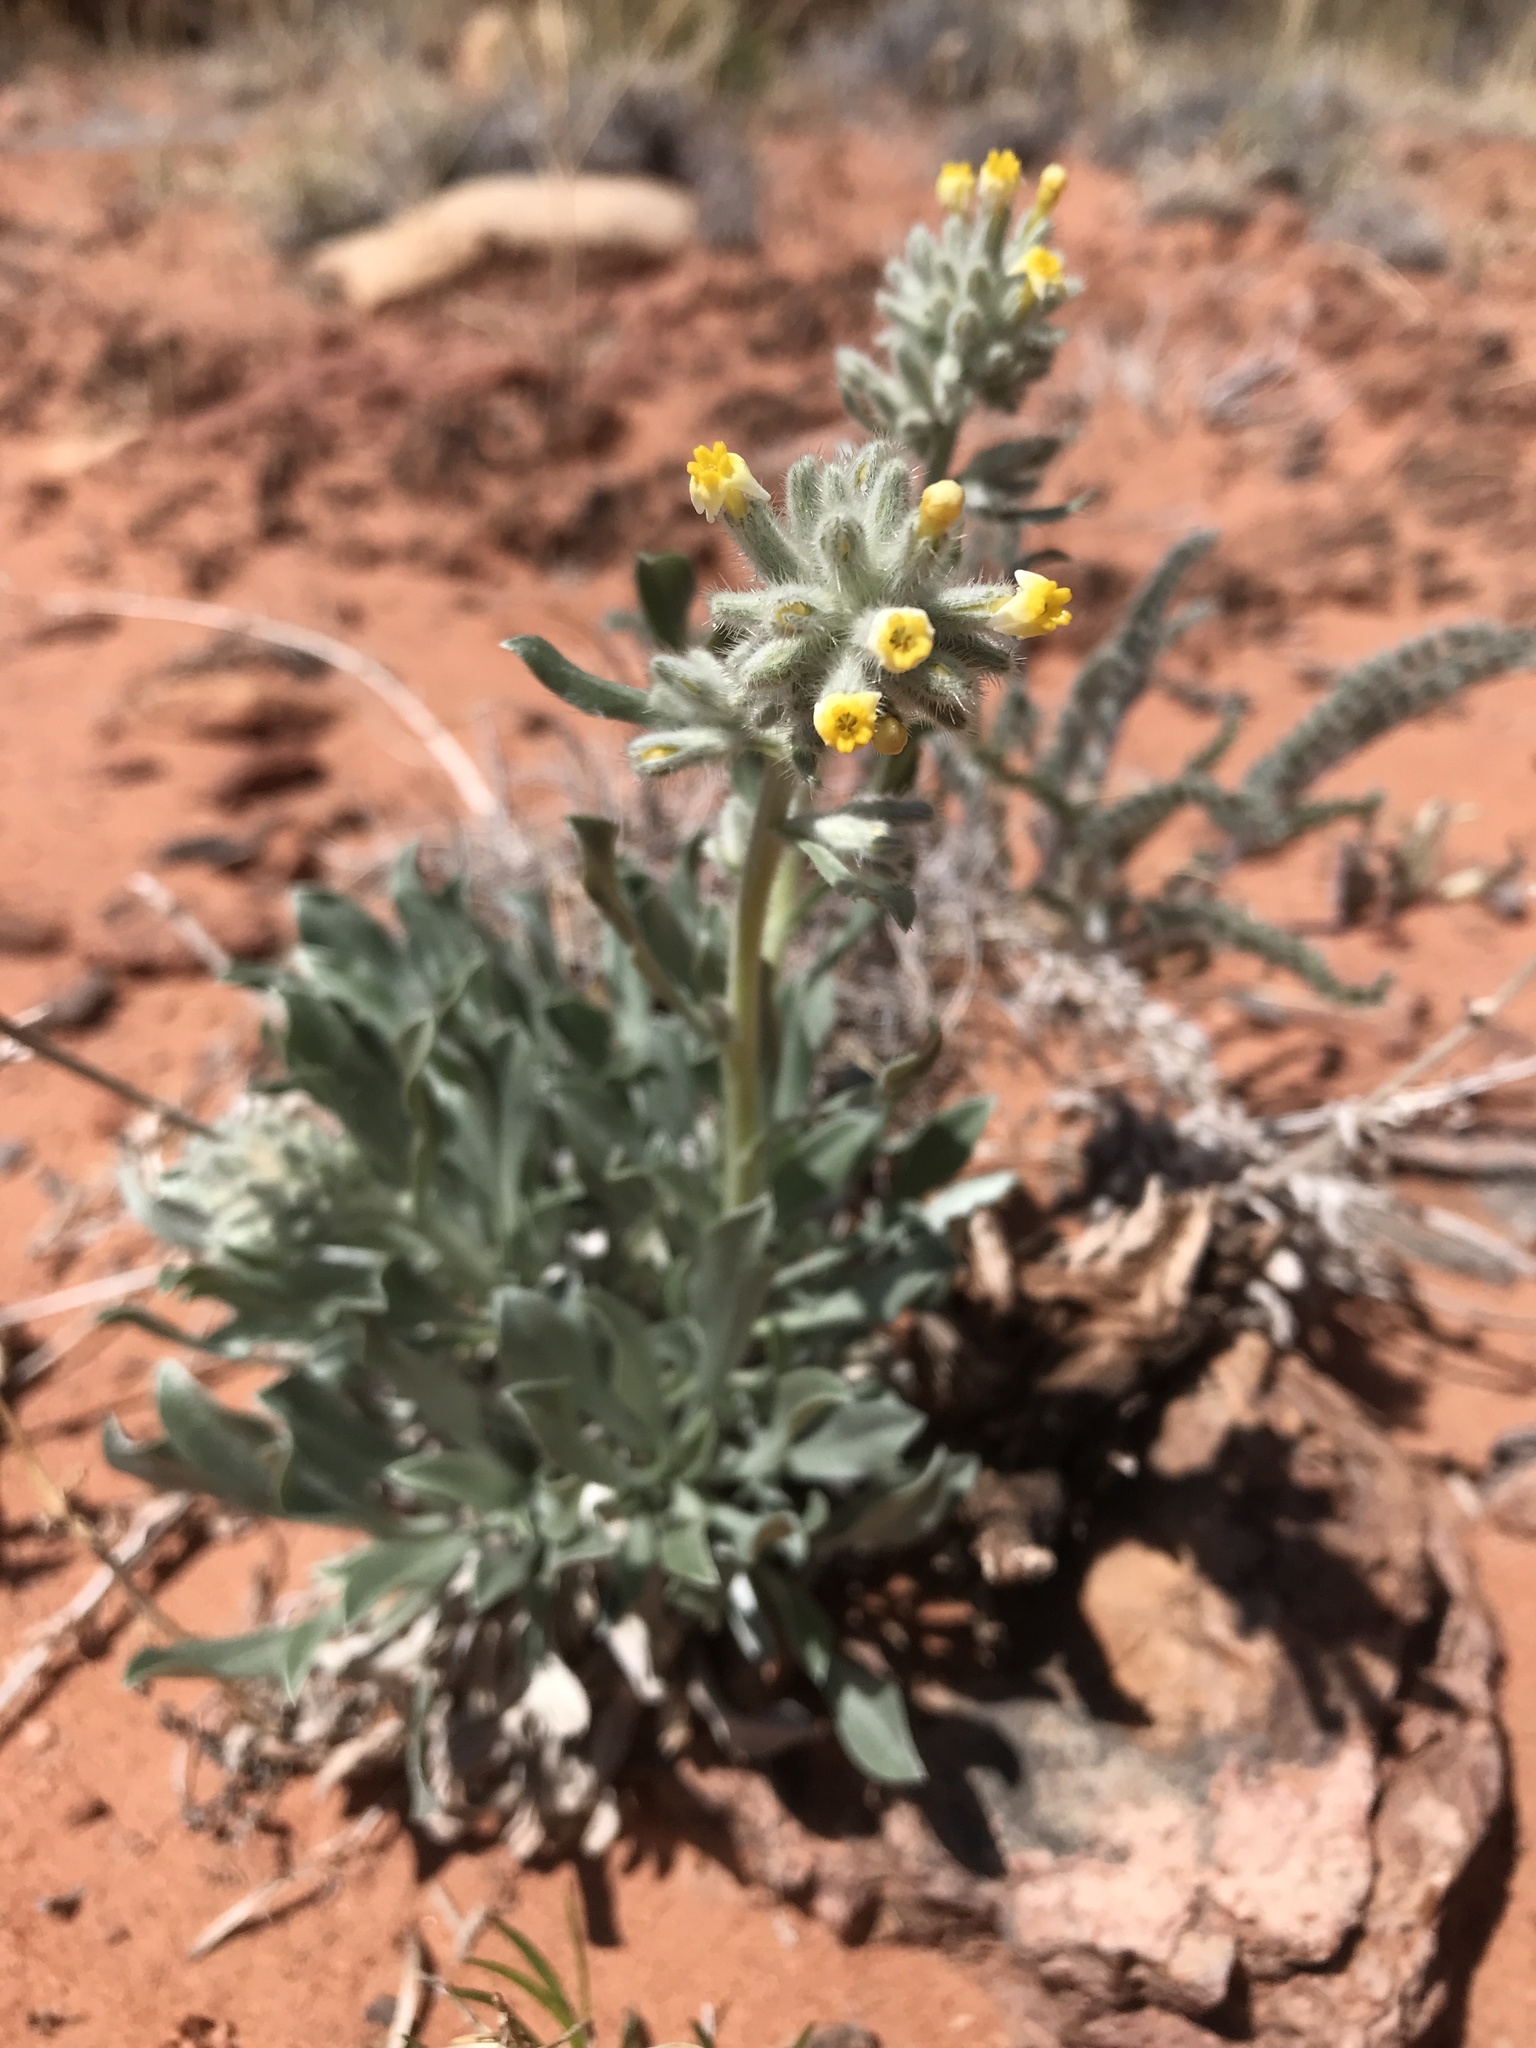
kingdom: Plantae
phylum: Tracheophyta
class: Magnoliopsida
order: Boraginales
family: Boraginaceae
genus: Oreocarya
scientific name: Oreocarya confertiflora
